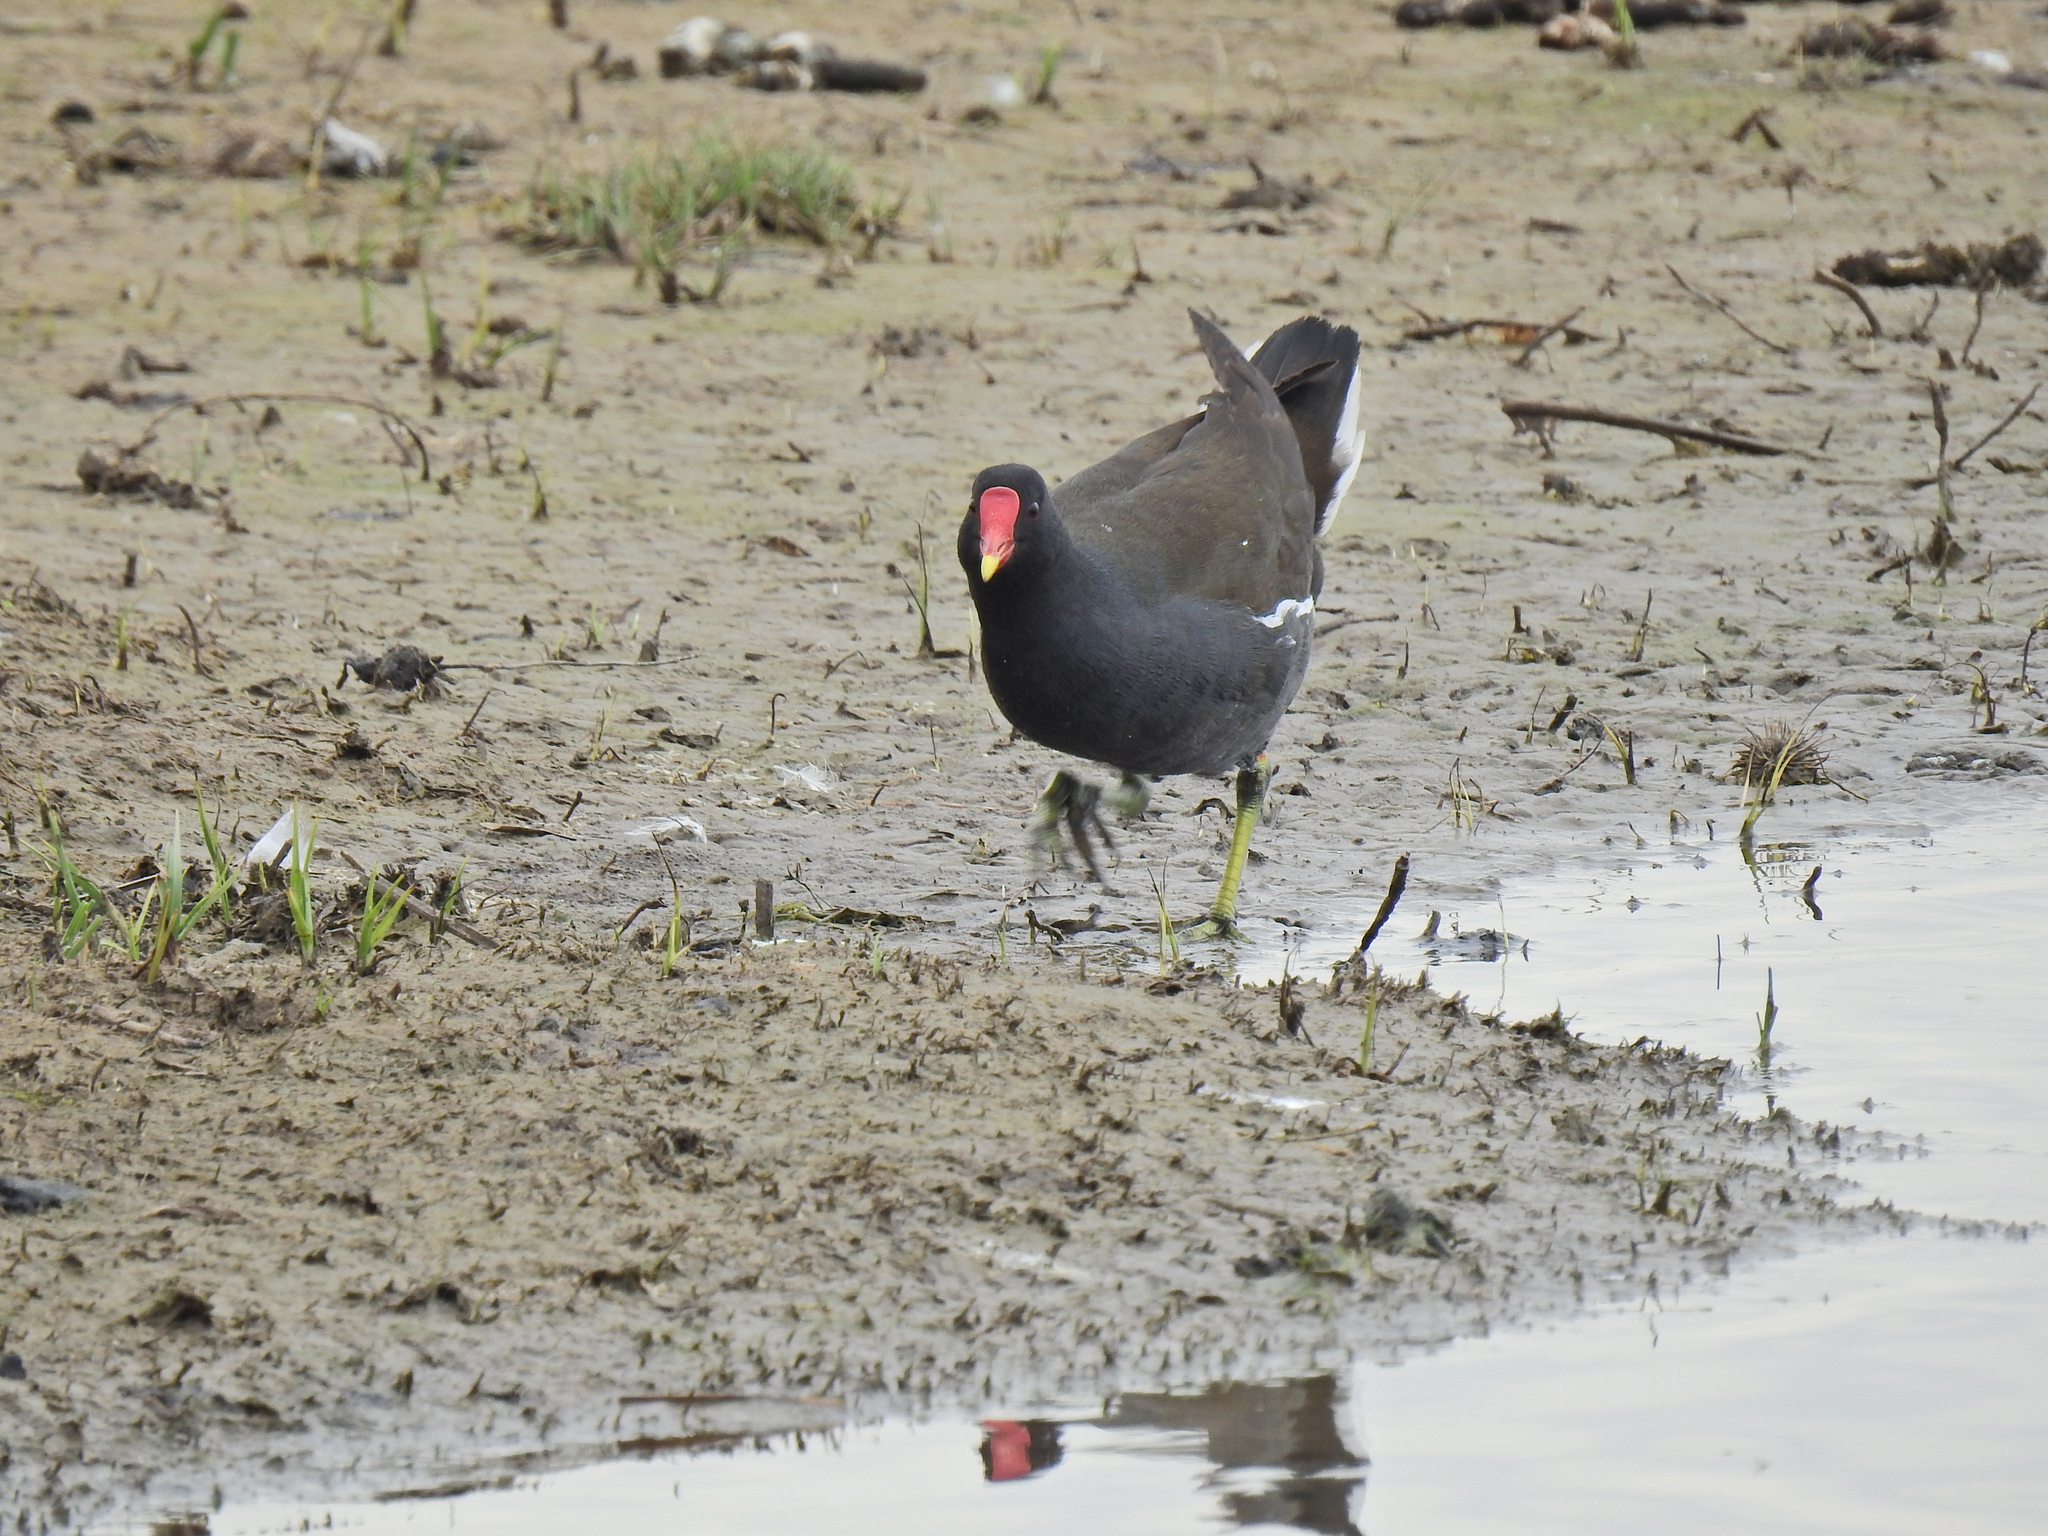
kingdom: Animalia
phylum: Chordata
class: Aves
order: Gruiformes
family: Rallidae
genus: Gallinula
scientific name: Gallinula chloropus
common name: Common moorhen
